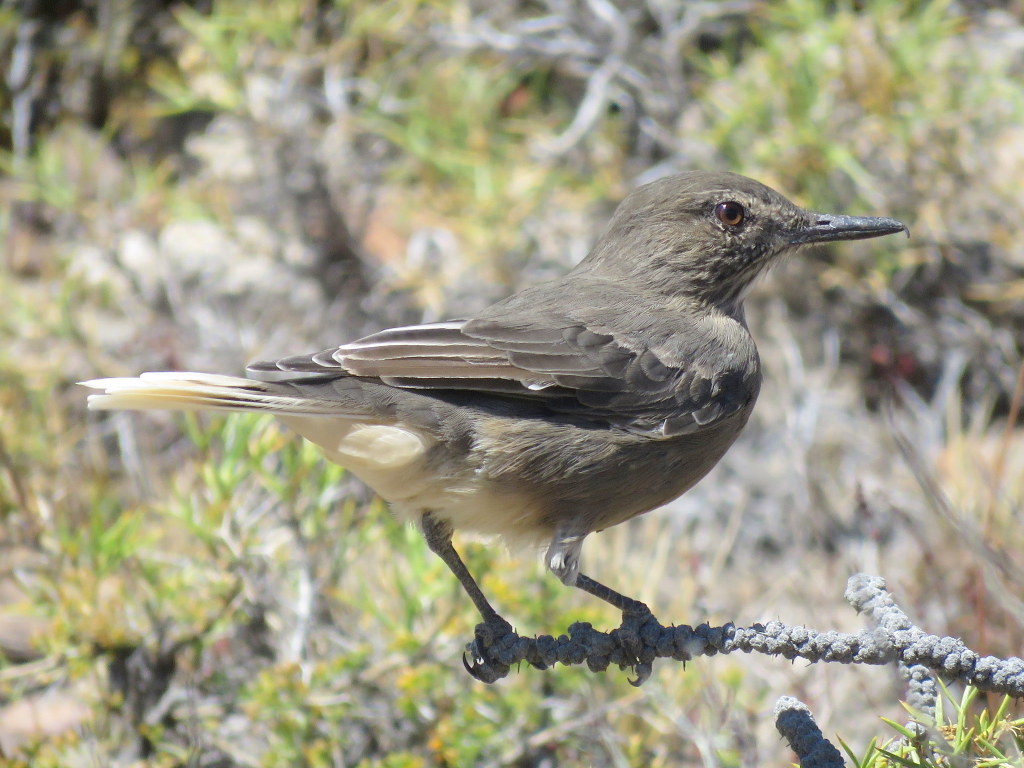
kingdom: Animalia
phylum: Chordata
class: Aves
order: Passeriformes
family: Tyrannidae
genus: Agriornis
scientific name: Agriornis montanus
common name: Black-billed shrike-tyrant
